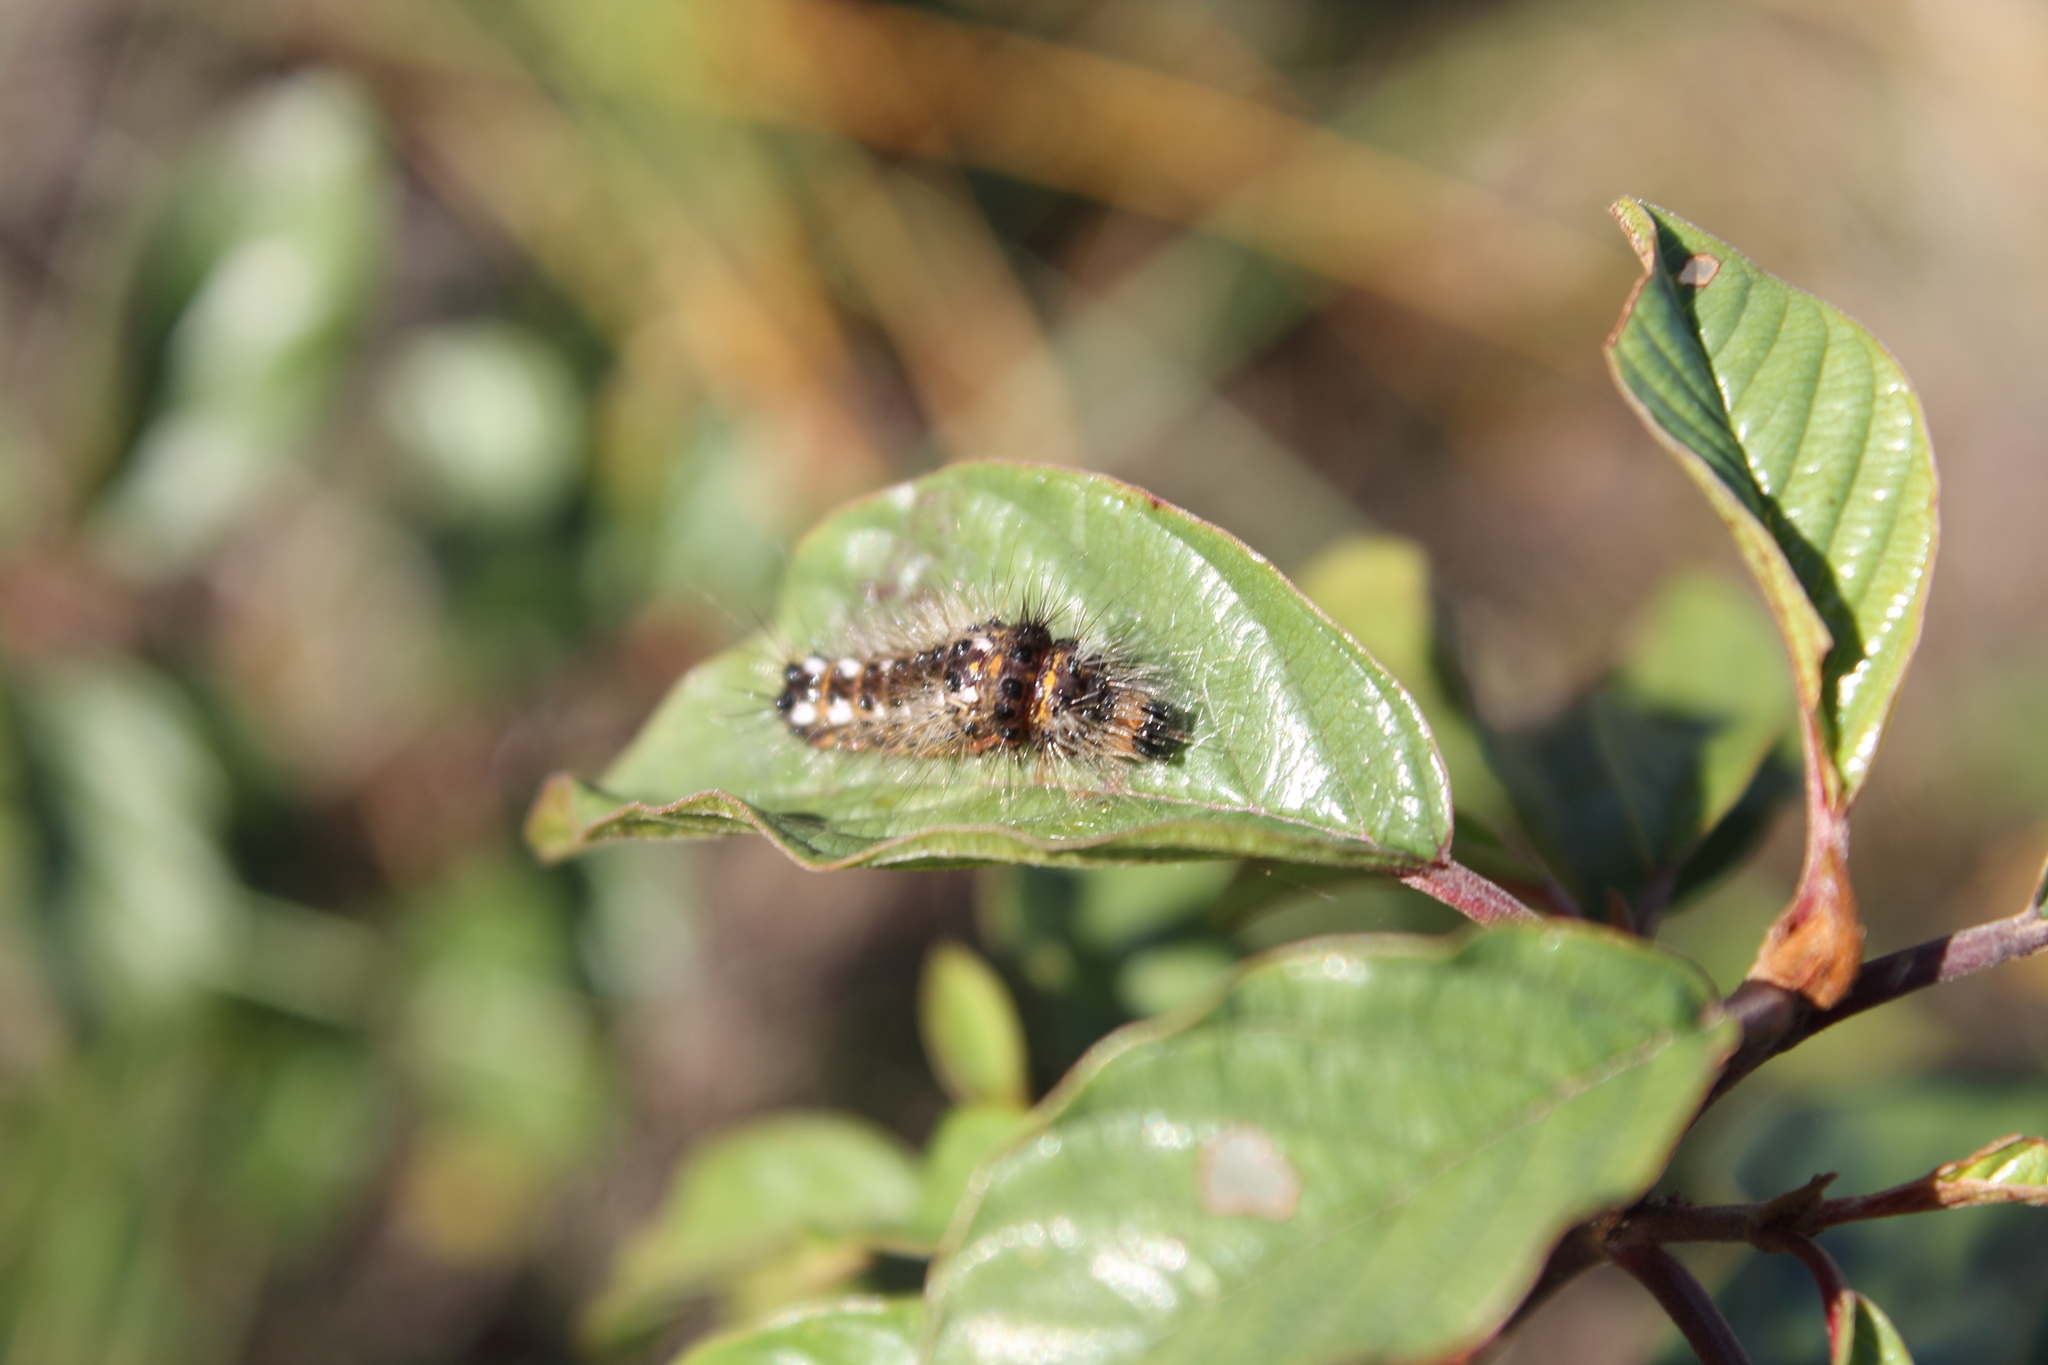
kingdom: Animalia
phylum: Arthropoda
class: Insecta
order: Lepidoptera
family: Noctuidae
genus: Acronicta
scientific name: Acronicta rumicis
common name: Knot grass
